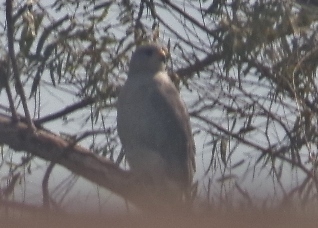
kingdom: Animalia
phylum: Chordata
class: Aves
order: Accipitriformes
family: Accipitridae
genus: Buteo
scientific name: Buteo nitidus
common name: Grey-lined hawk
